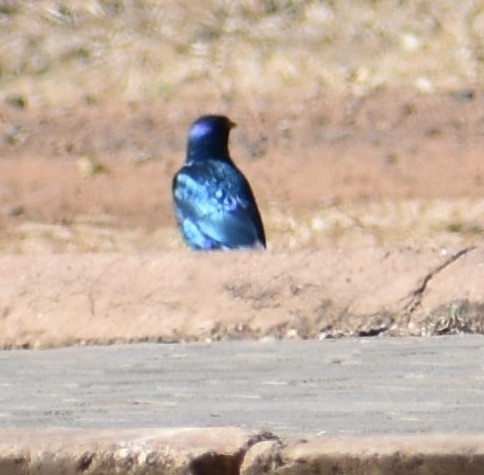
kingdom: Animalia
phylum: Chordata
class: Aves
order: Passeriformes
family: Sturnidae
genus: Lamprotornis
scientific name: Lamprotornis australis
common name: Burchell's starling
